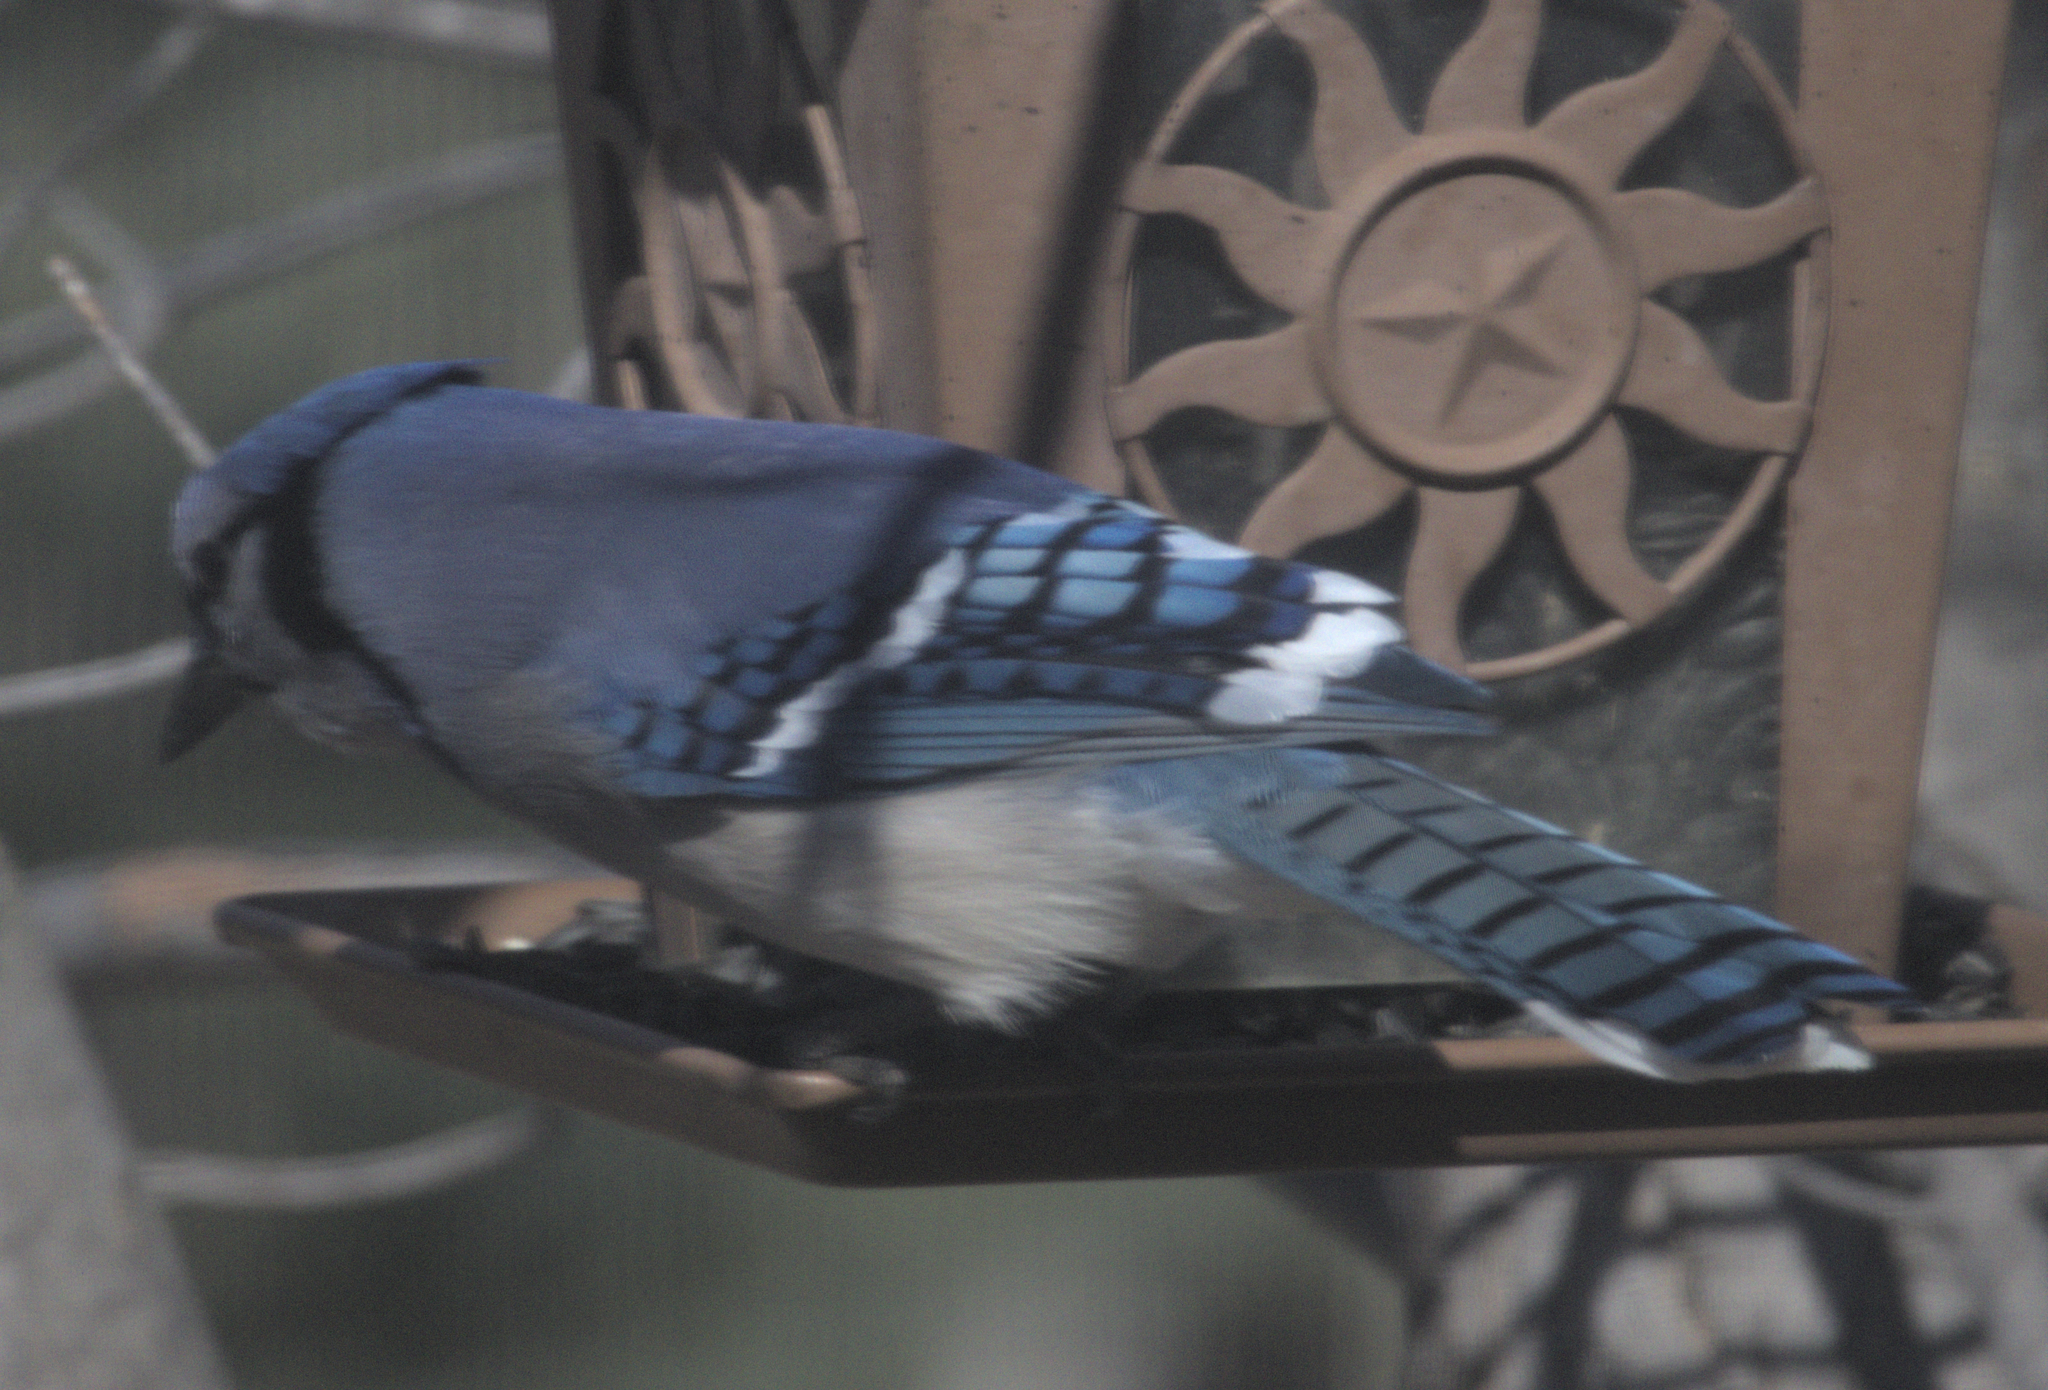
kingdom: Animalia
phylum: Chordata
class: Aves
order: Passeriformes
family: Corvidae
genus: Cyanocitta
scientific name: Cyanocitta cristata
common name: Blue jay
